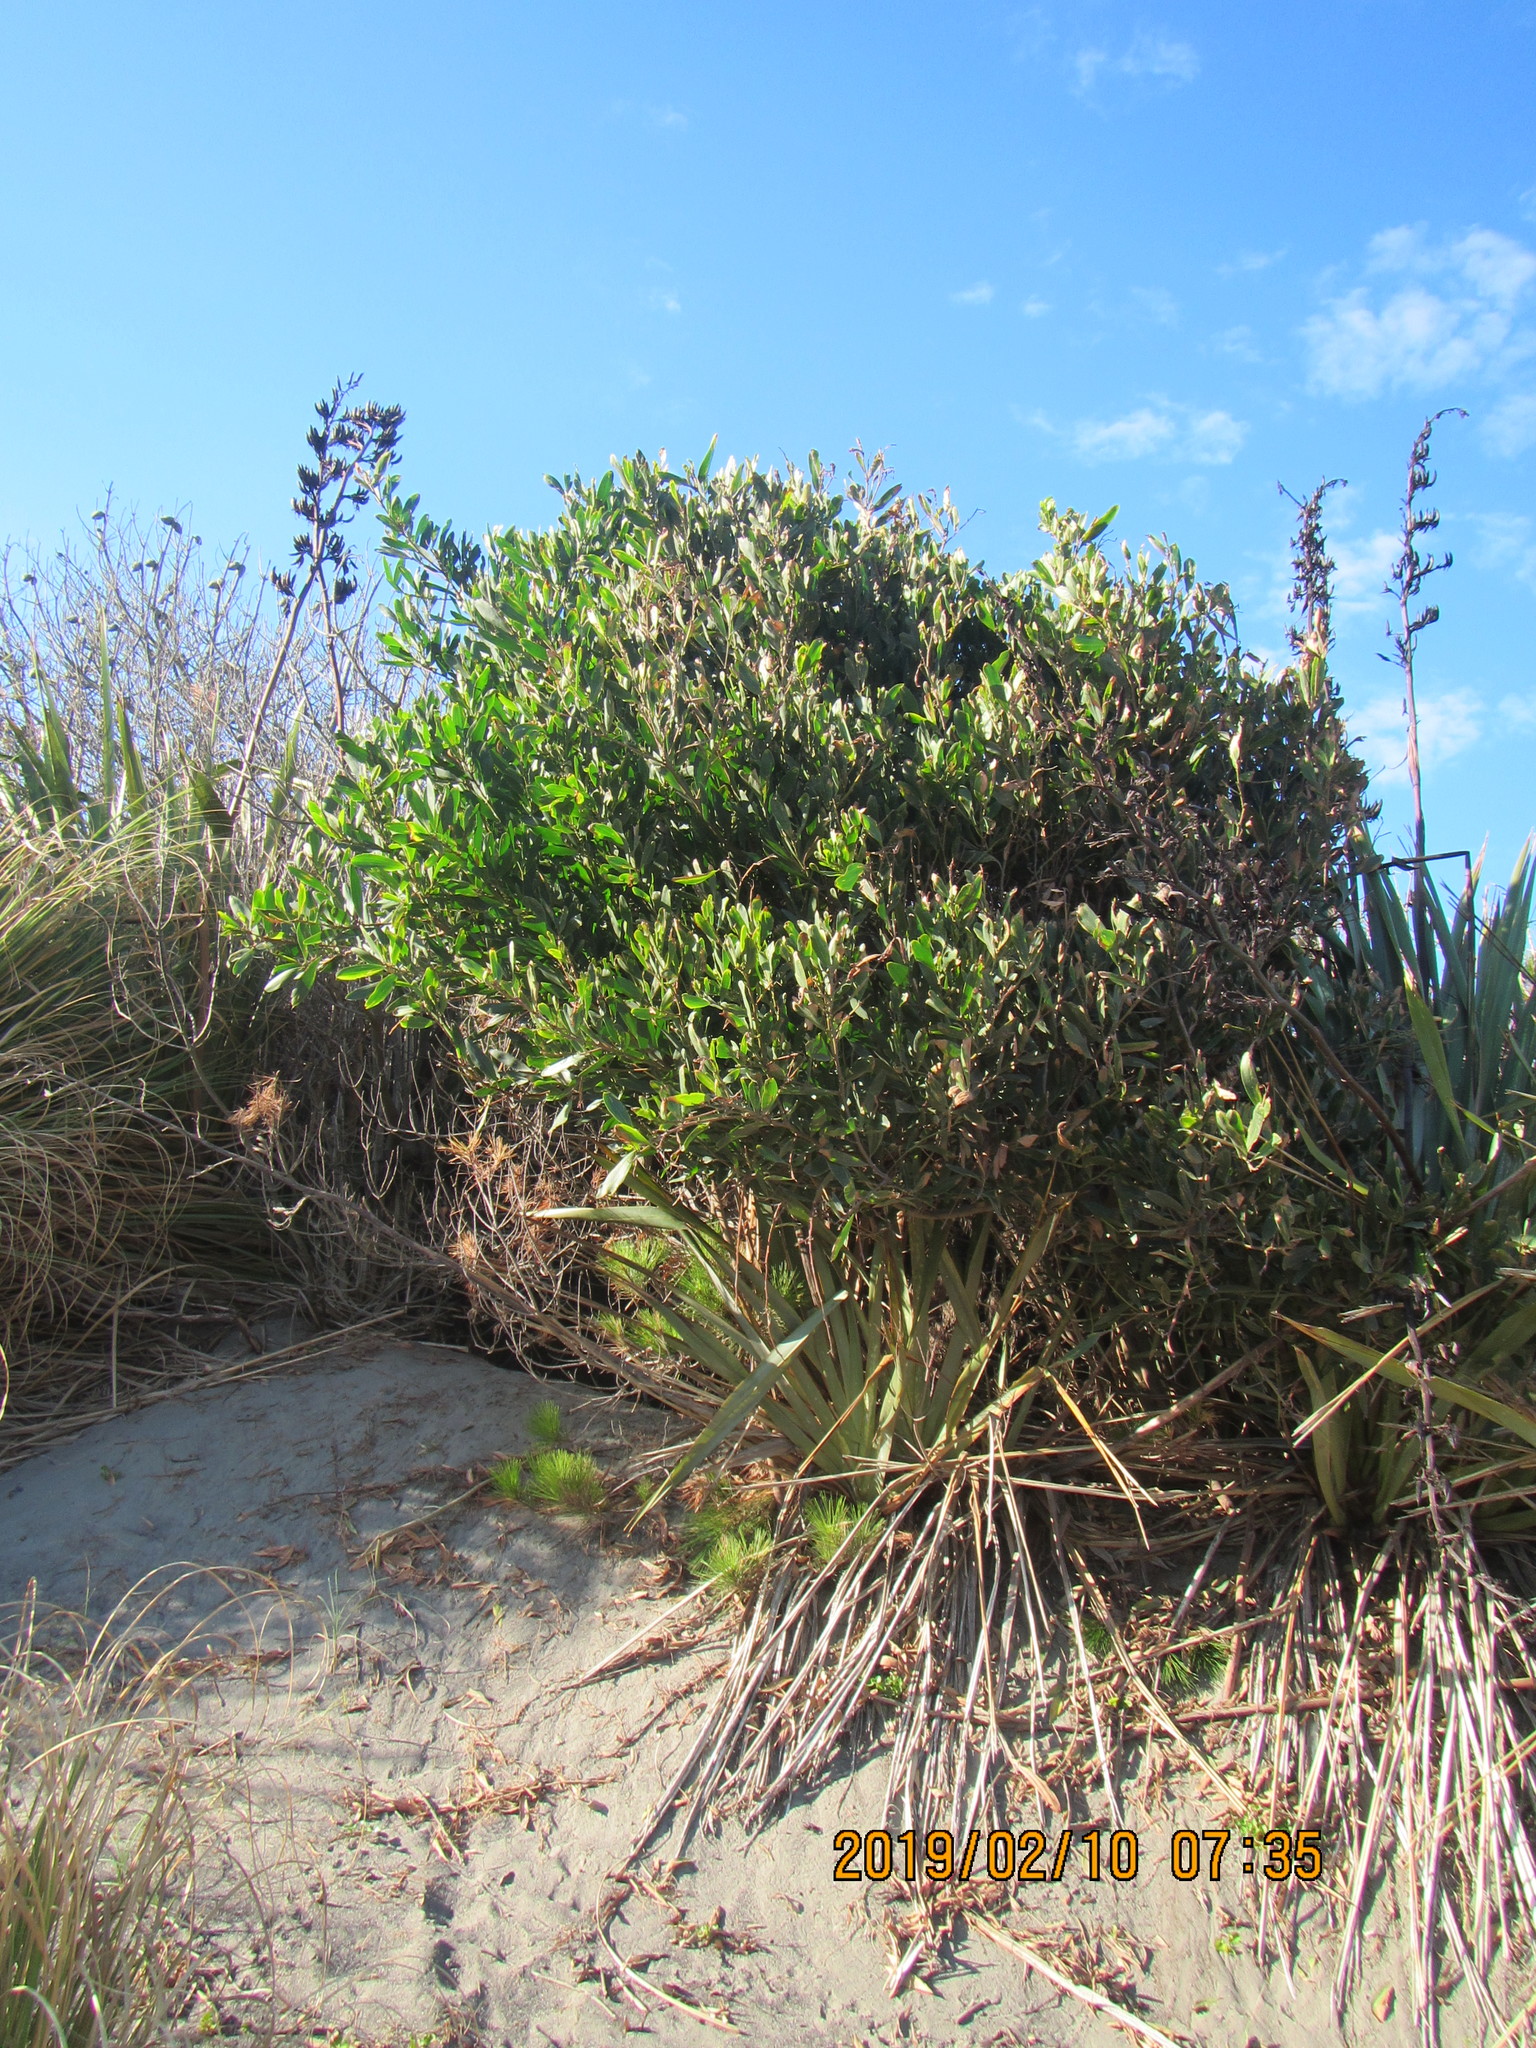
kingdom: Plantae
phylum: Tracheophyta
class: Magnoliopsida
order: Fabales
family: Fabaceae
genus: Acacia
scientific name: Acacia longifolia
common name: Sydney golden wattle
